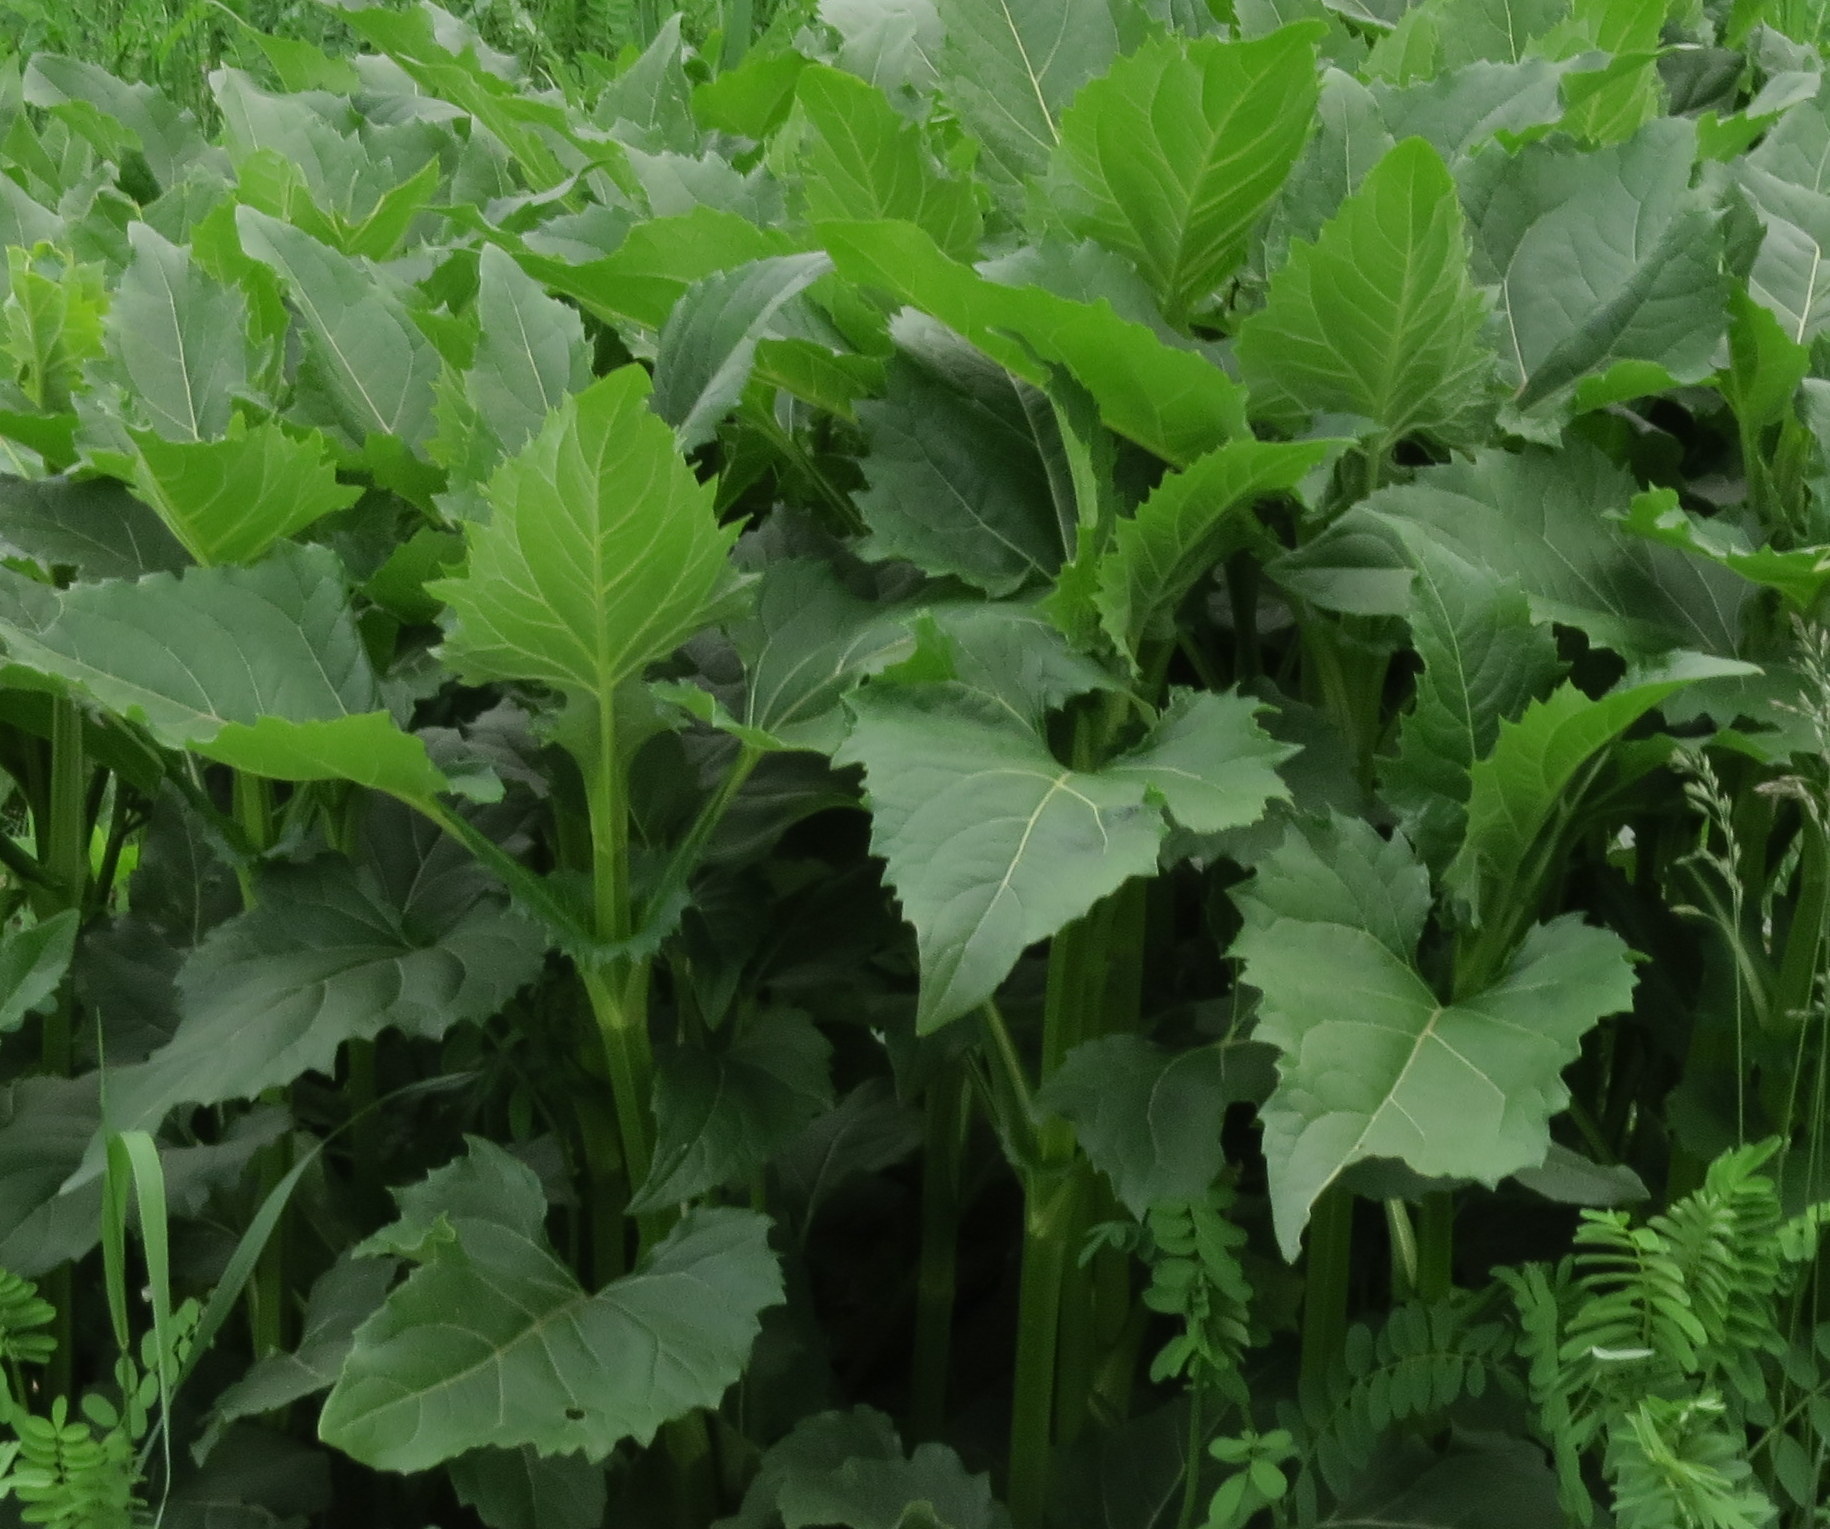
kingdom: Plantae
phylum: Tracheophyta
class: Magnoliopsida
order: Asterales
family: Asteraceae
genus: Silphium
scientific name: Silphium perfoliatum
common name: Cup-plant
